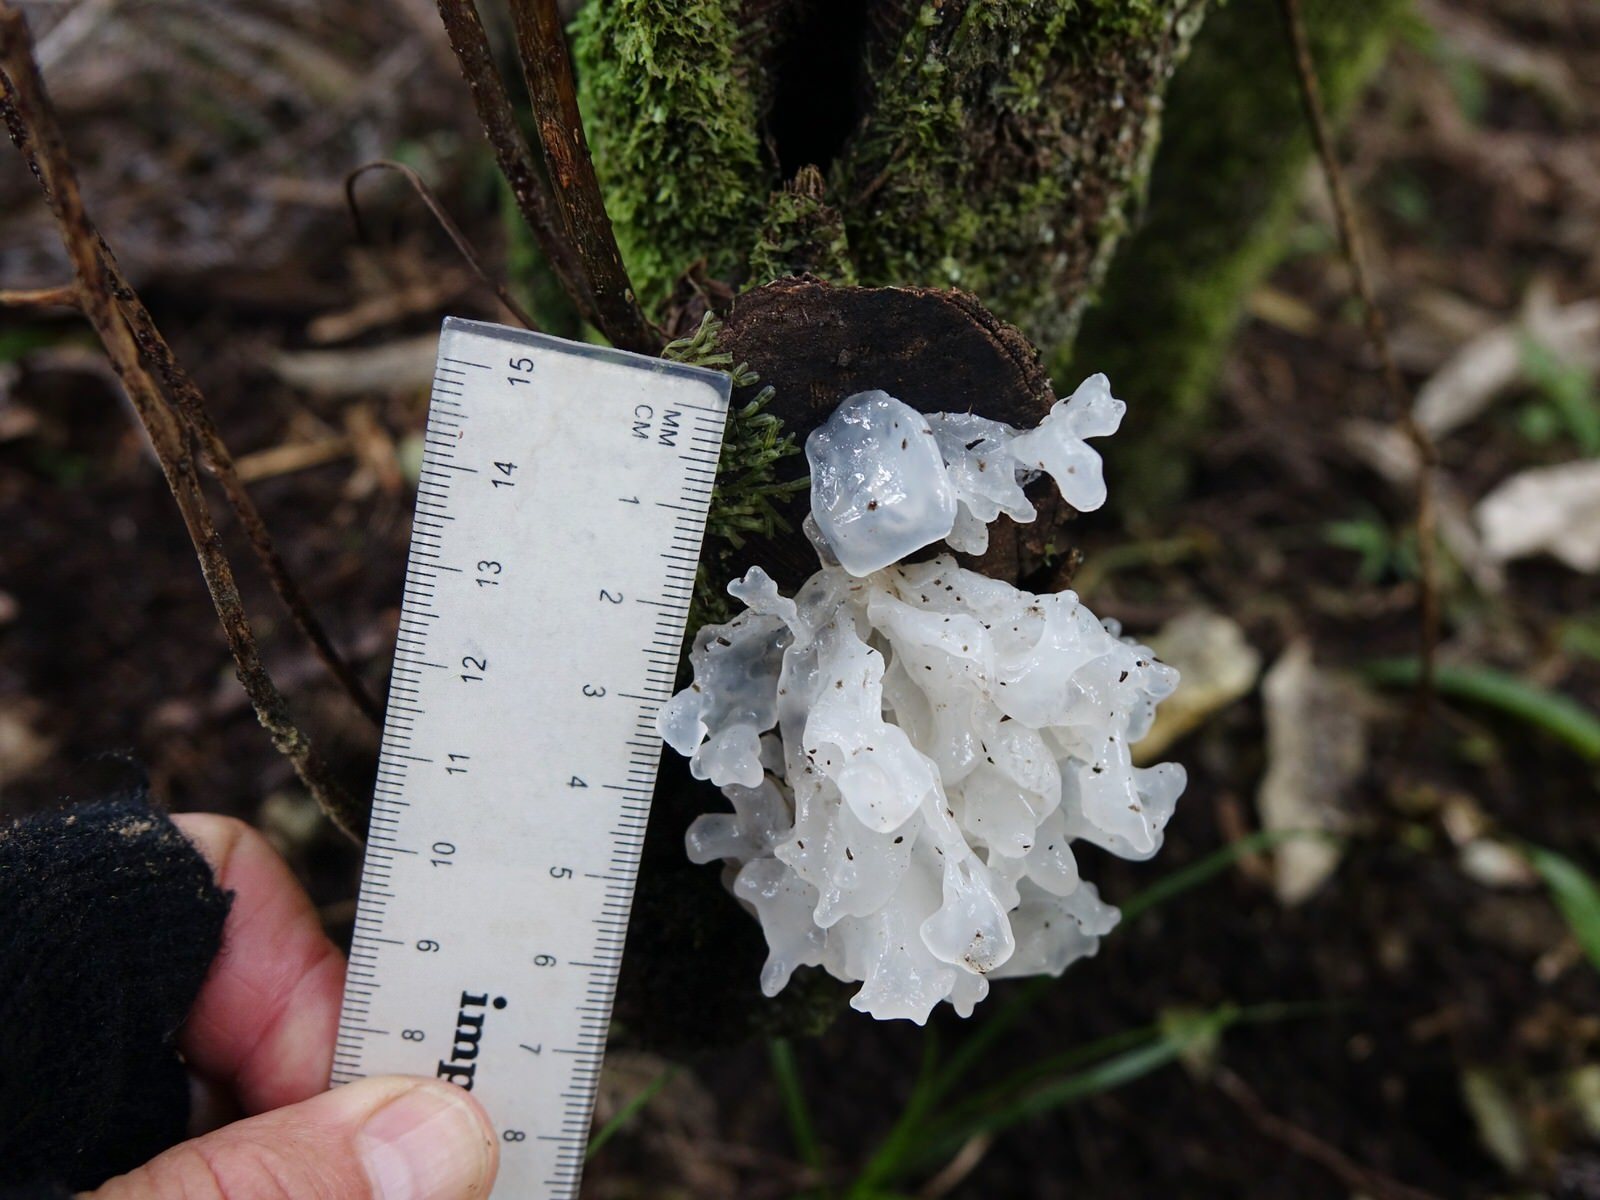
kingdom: Fungi
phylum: Basidiomycota
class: Tremellomycetes
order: Tremellales
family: Tremellaceae
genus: Tremella
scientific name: Tremella fuciformis
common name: Snow fungus
